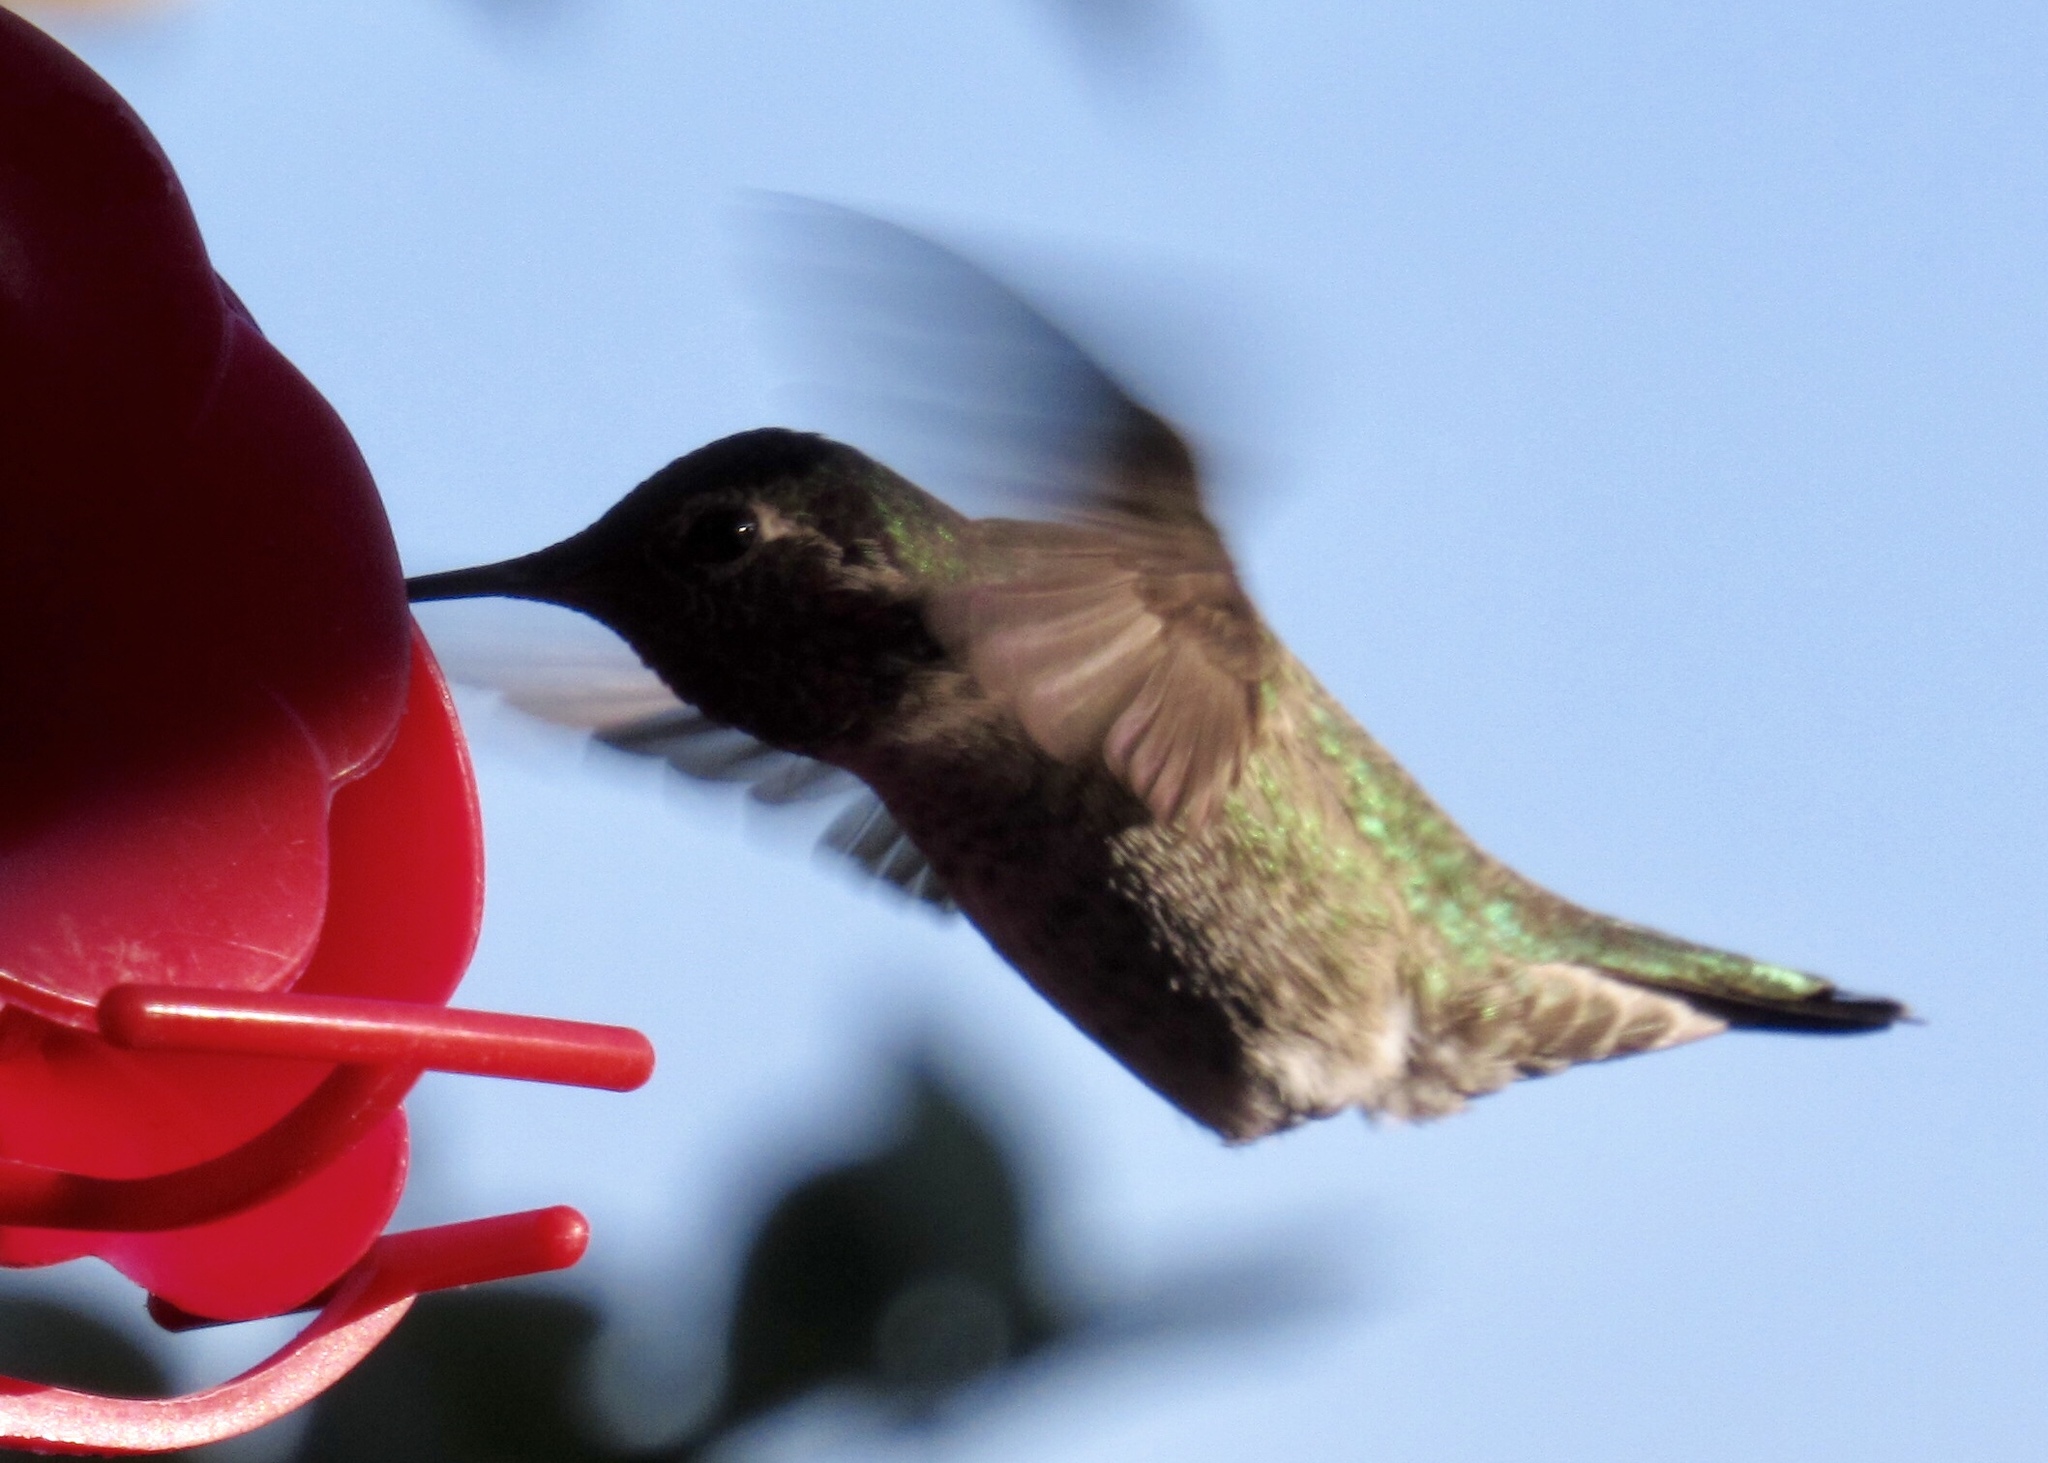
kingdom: Animalia
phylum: Chordata
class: Aves
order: Apodiformes
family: Trochilidae
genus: Calypte
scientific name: Calypte anna
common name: Anna's hummingbird
